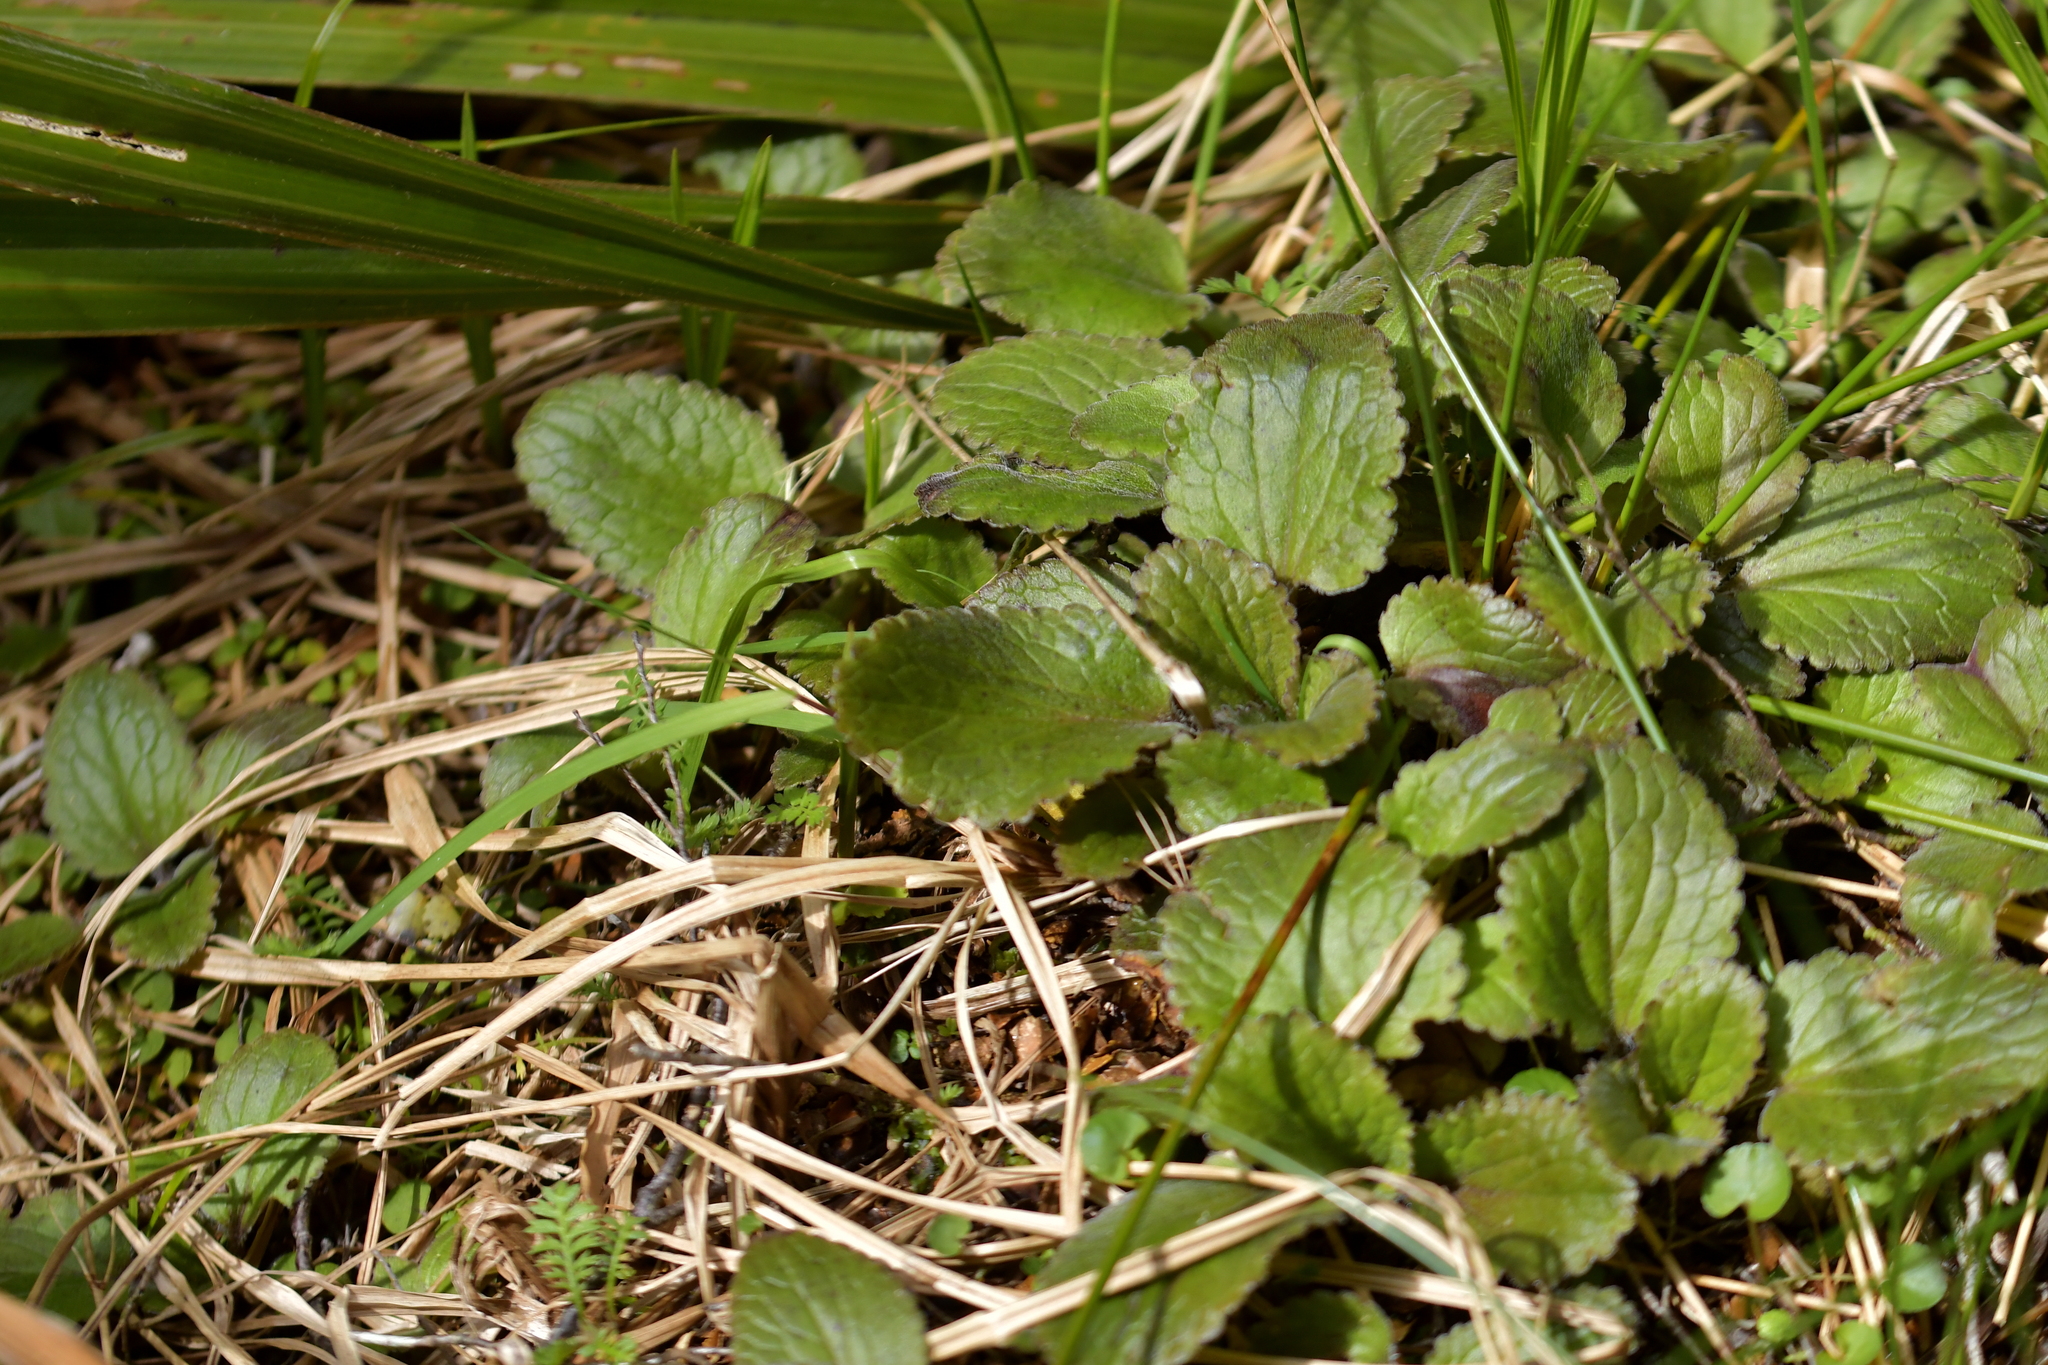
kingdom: Plantae
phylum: Tracheophyta
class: Magnoliopsida
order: Lamiales
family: Plantaginaceae
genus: Ourisia
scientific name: Ourisia macrophylla
